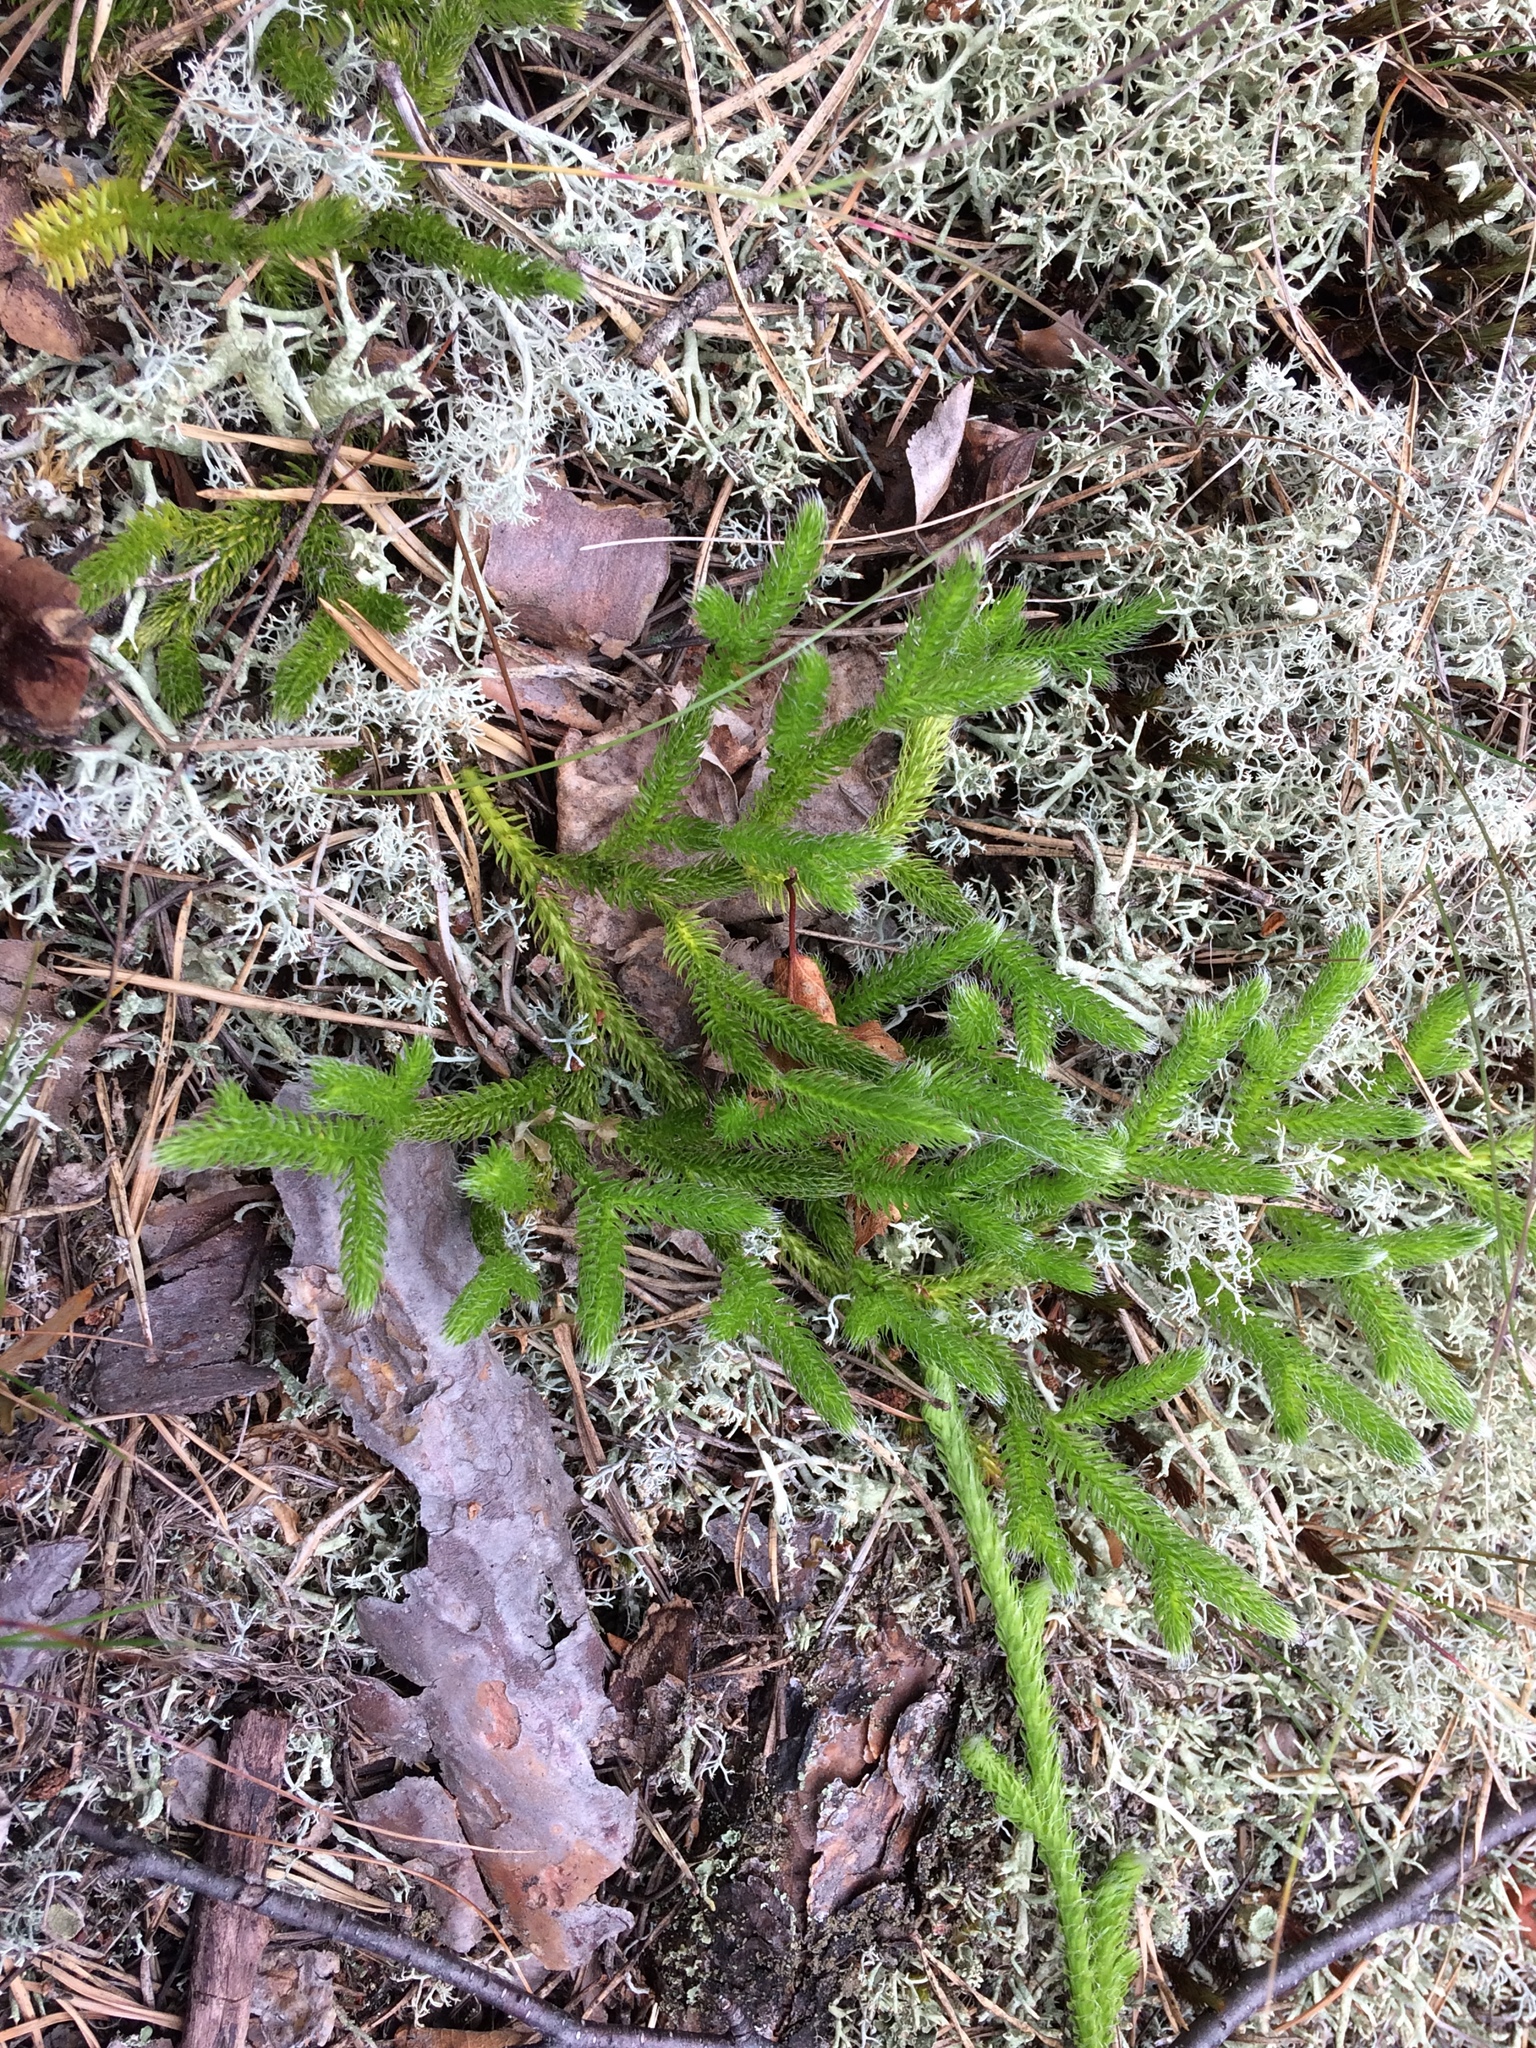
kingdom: Plantae
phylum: Tracheophyta
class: Lycopodiopsida
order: Lycopodiales
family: Lycopodiaceae
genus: Lycopodium
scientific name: Lycopodium clavatum
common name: Stag's-horn clubmoss
